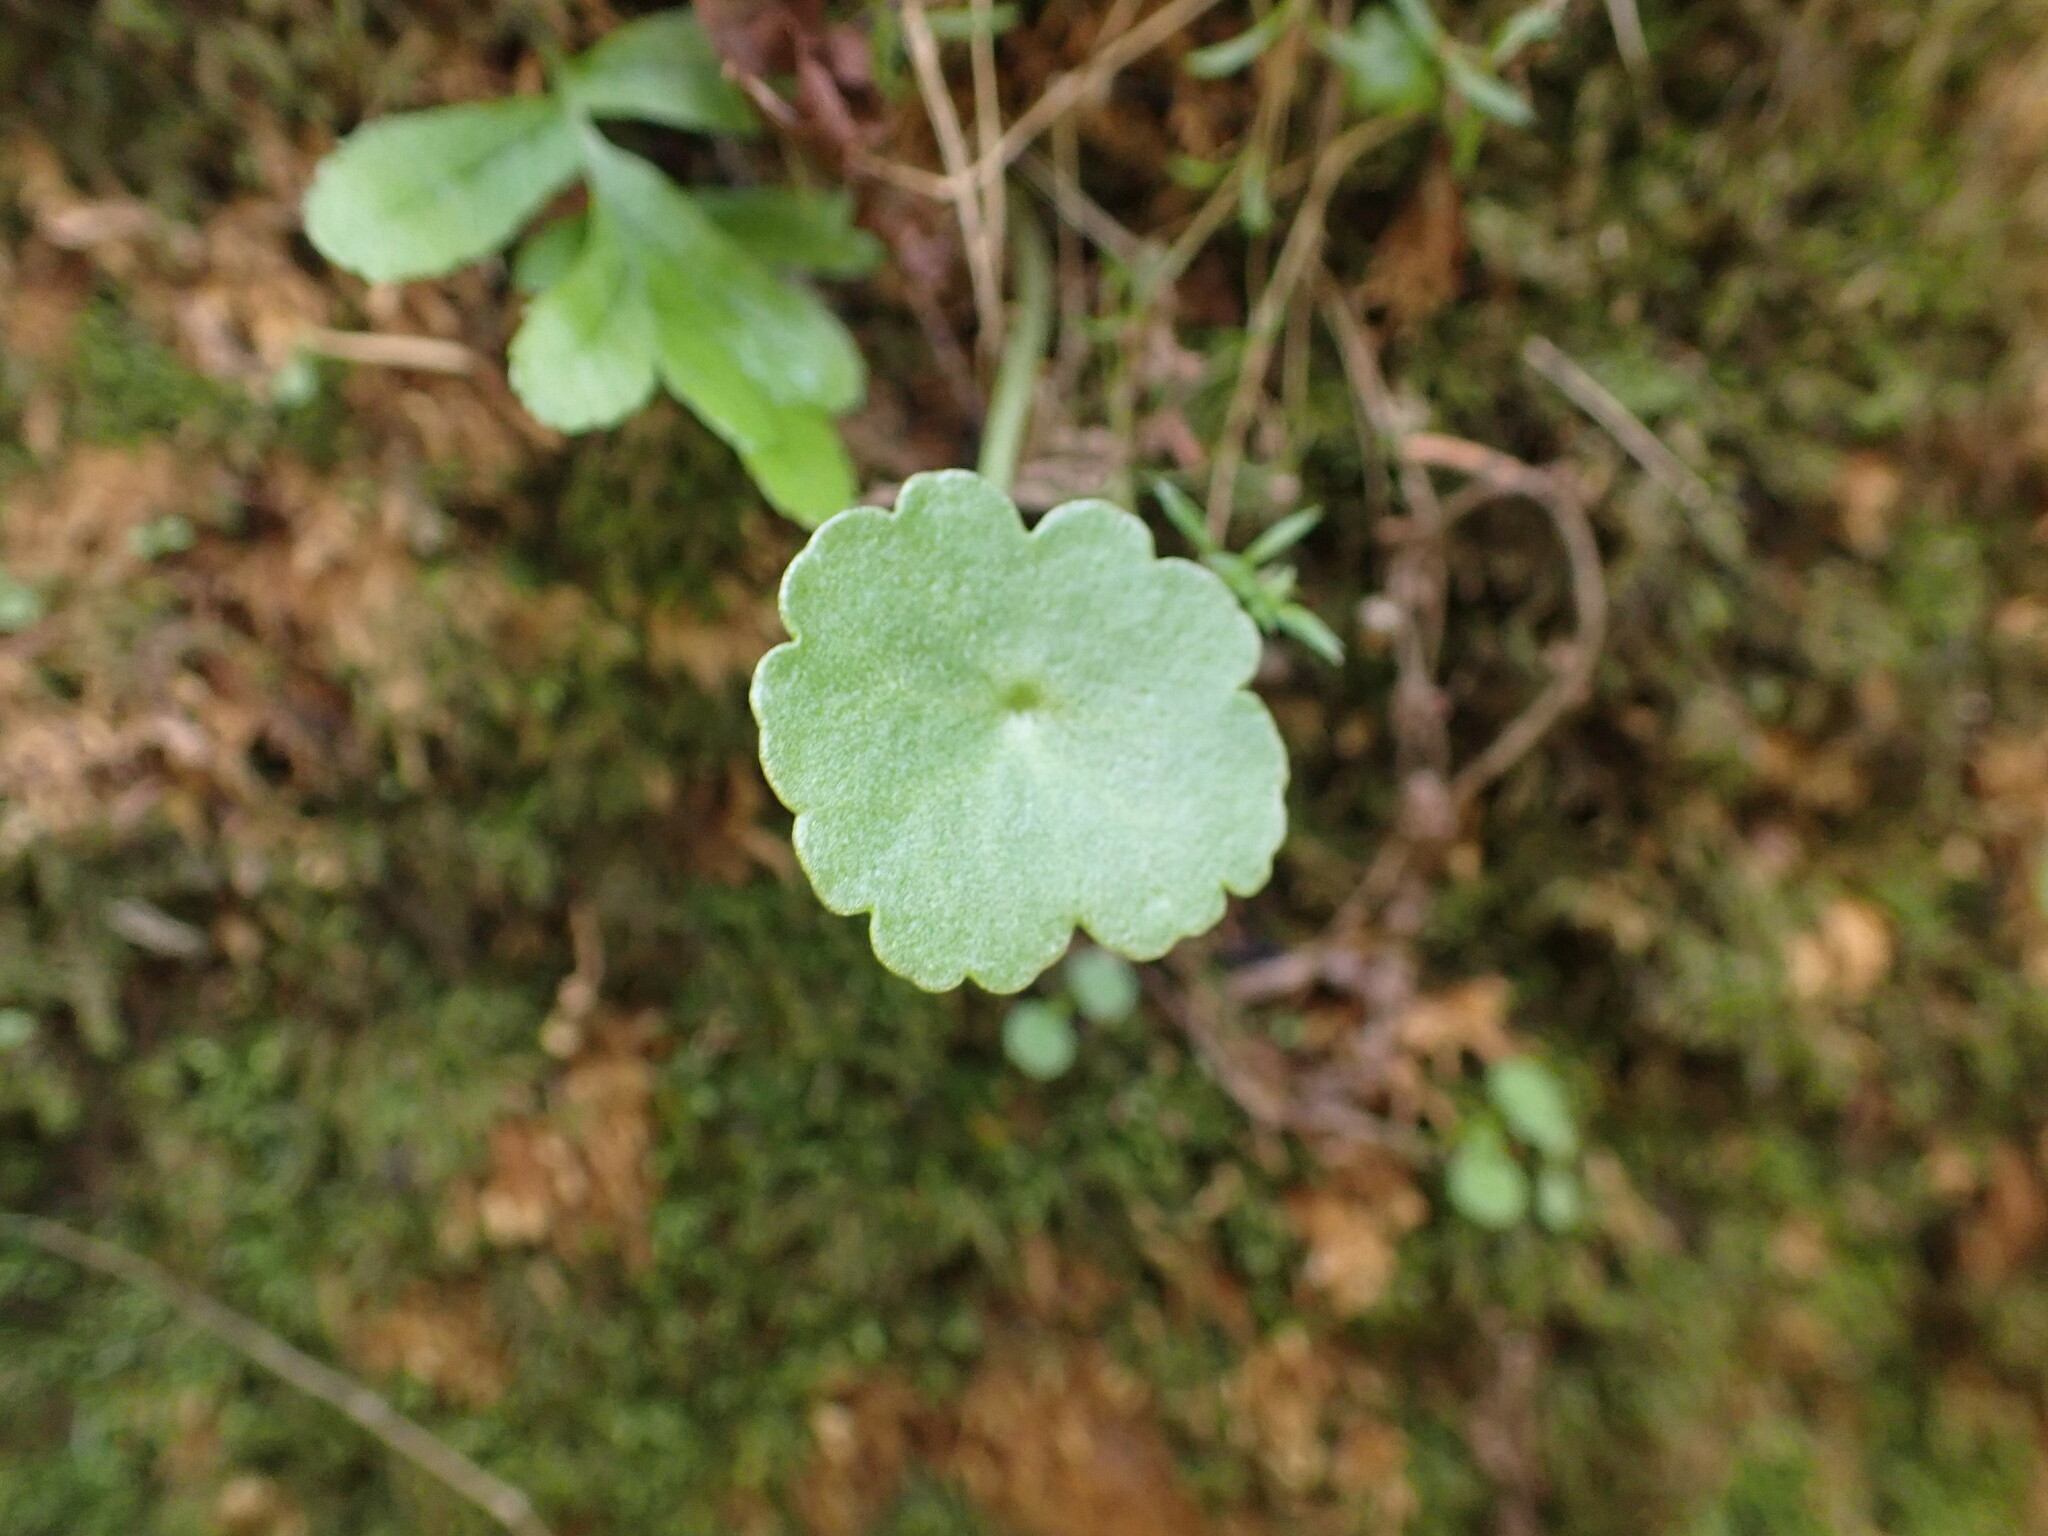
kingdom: Plantae
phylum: Tracheophyta
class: Magnoliopsida
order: Saxifragales
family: Crassulaceae
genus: Umbilicus
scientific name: Umbilicus rupestris
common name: Navelwort
